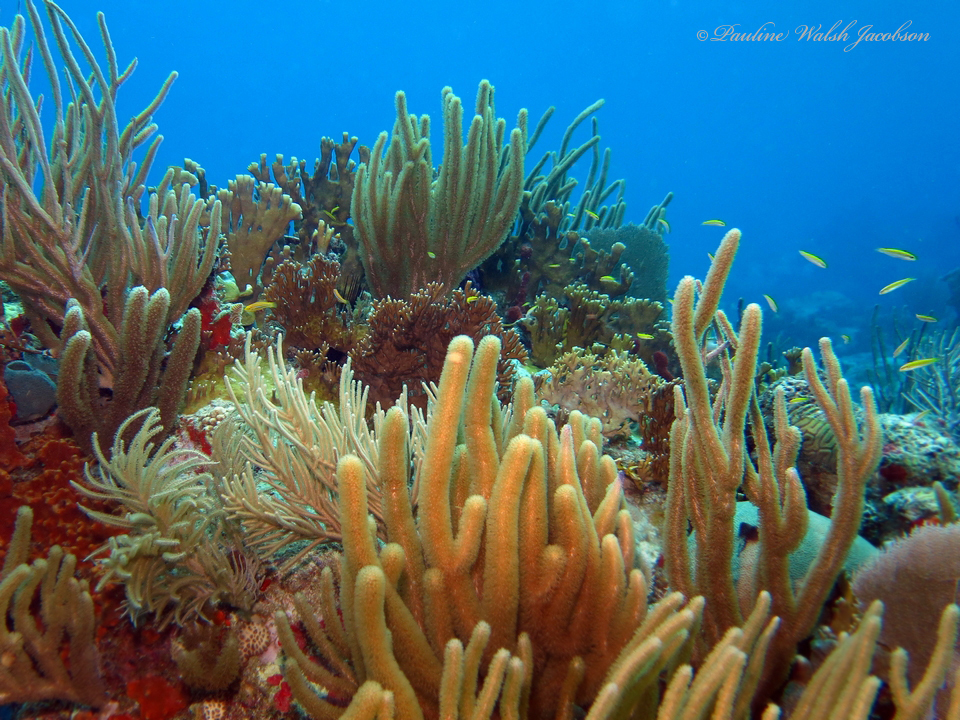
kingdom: Animalia
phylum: Chordata
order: Perciformes
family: Labridae
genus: Thalassoma
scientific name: Thalassoma bifasciatum
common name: Bluehead wrasse
